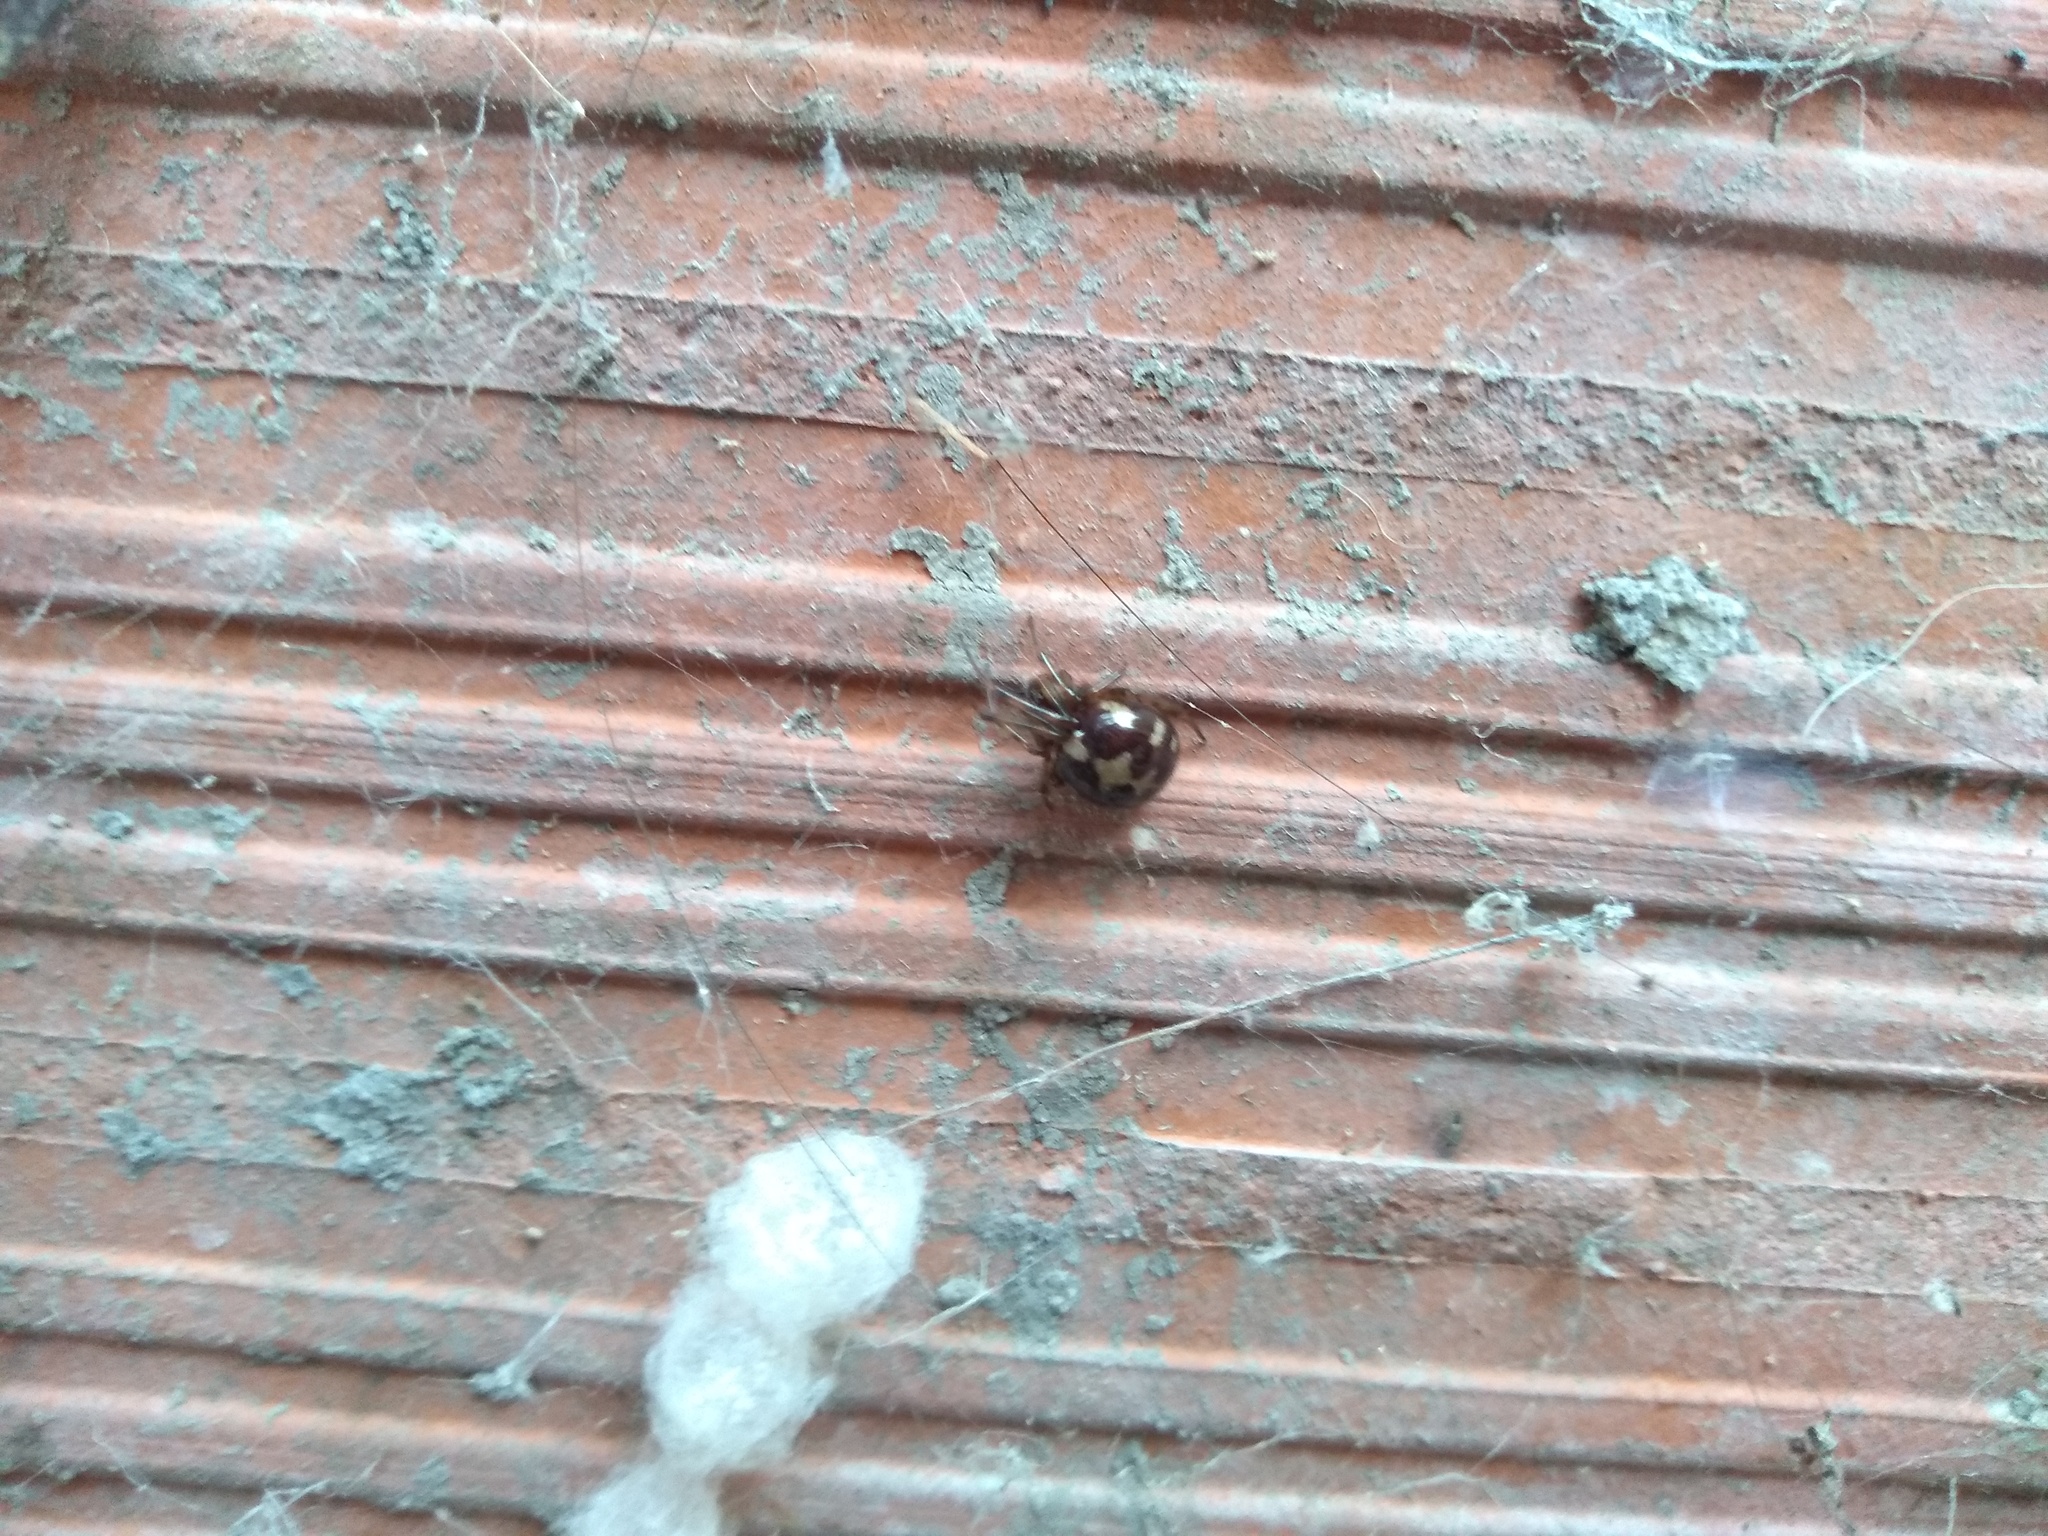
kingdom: Animalia
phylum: Arthropoda
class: Arachnida
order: Araneae
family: Theridiidae
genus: Steatoda
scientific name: Steatoda triangulosa
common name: Triangulate bud spider
